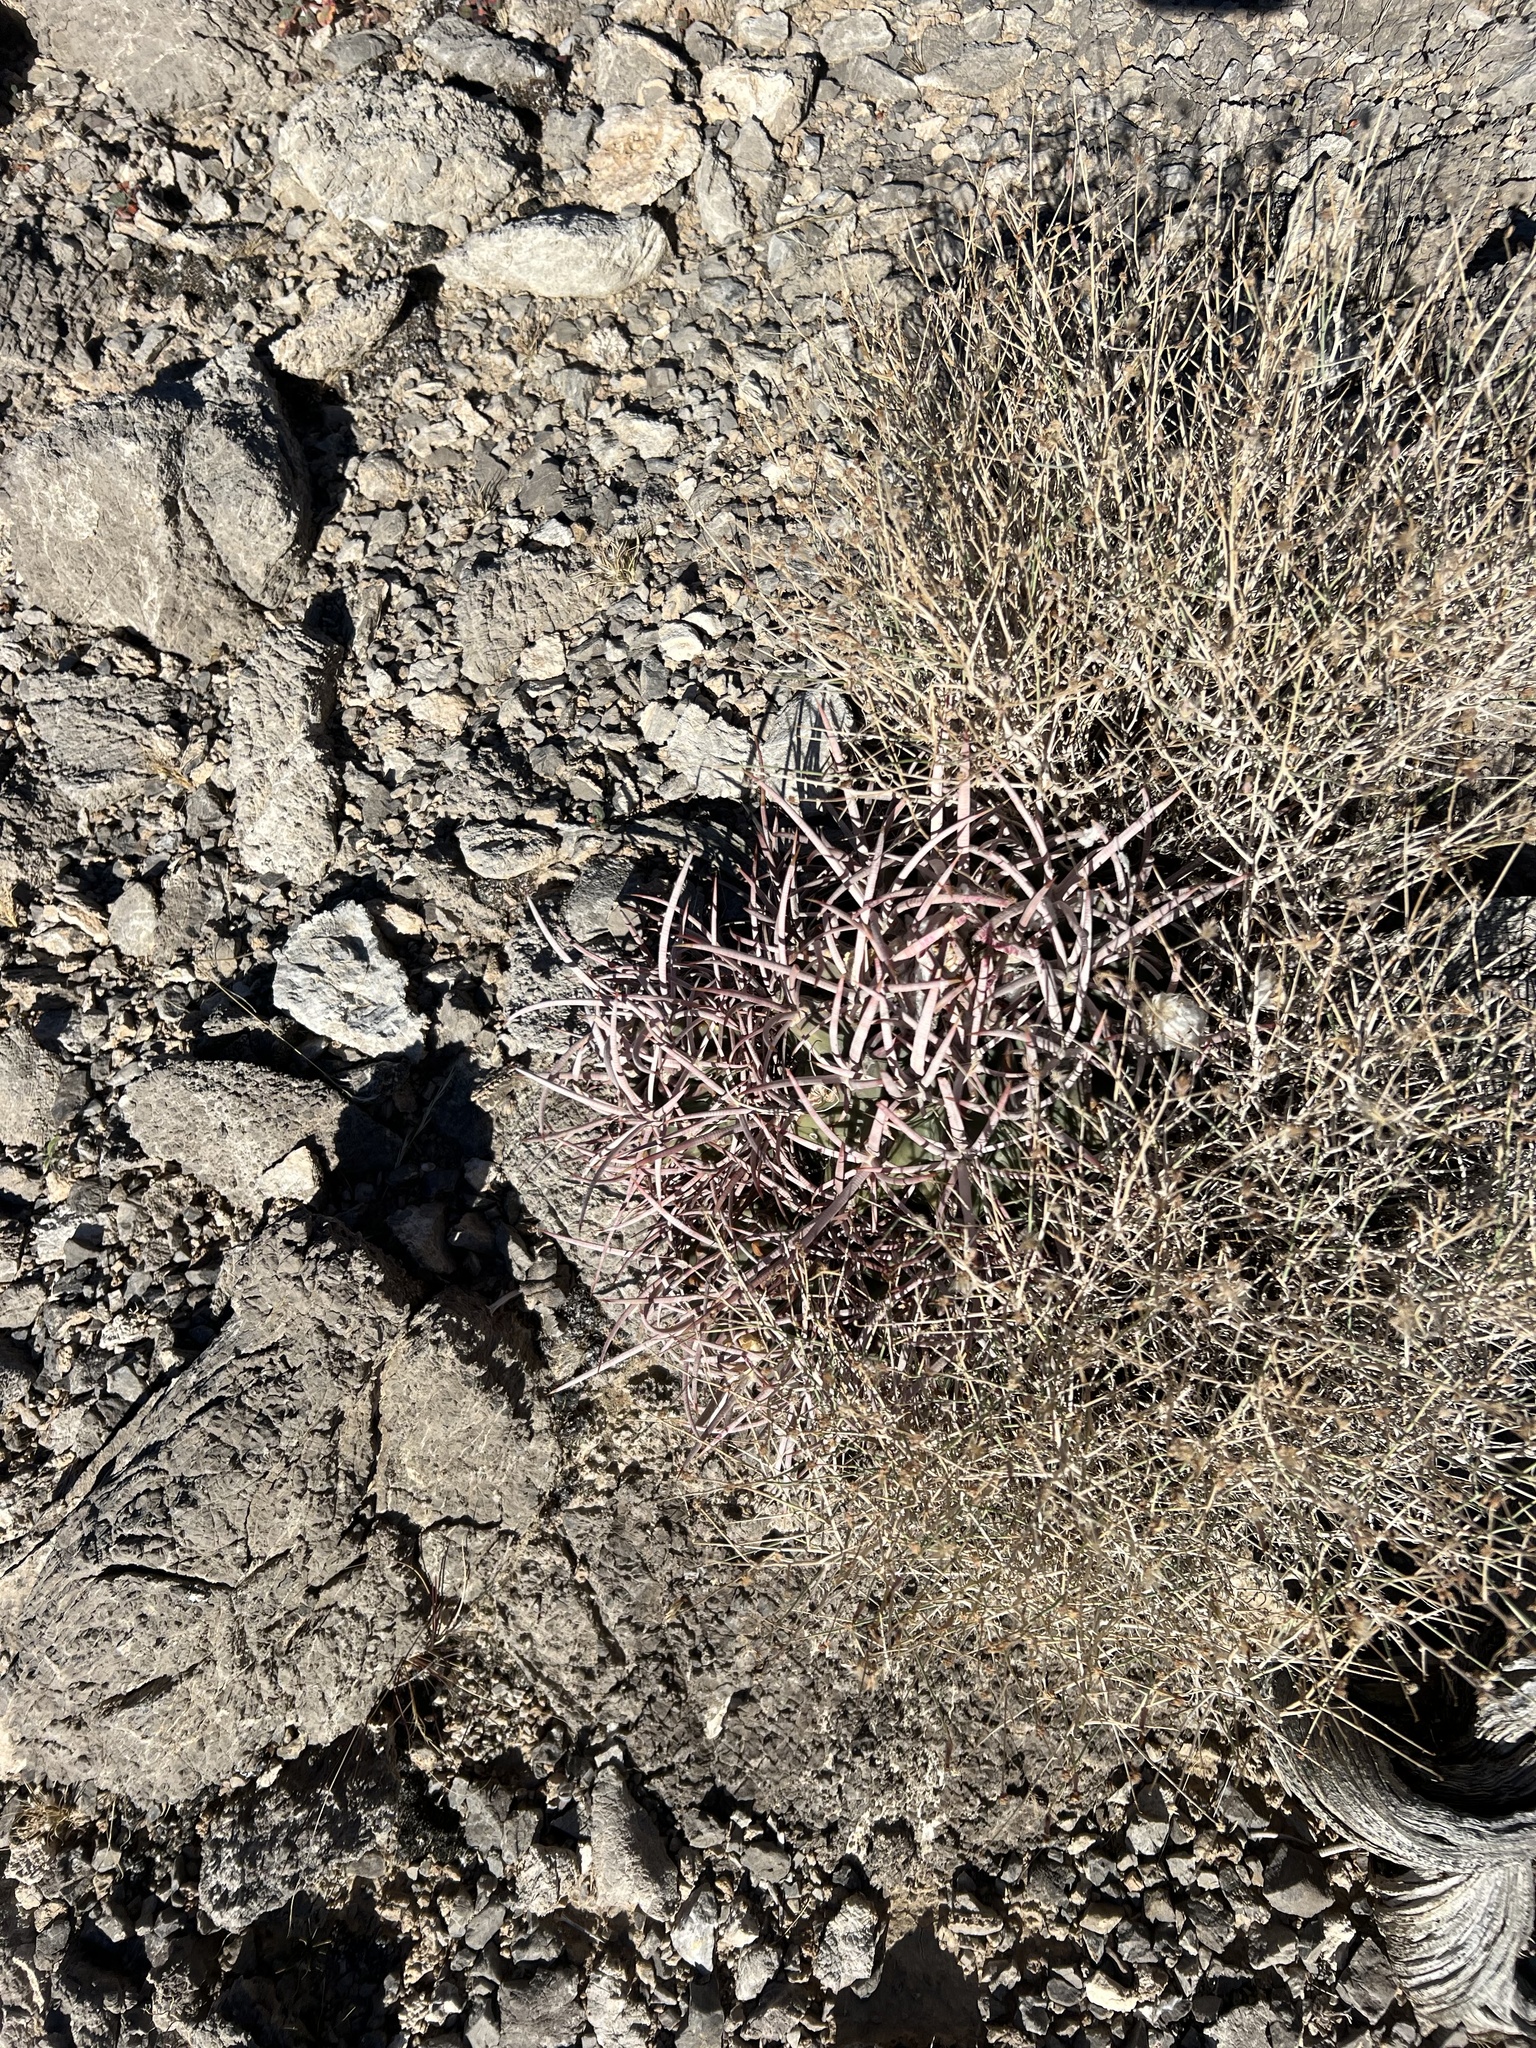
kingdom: Plantae
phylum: Tracheophyta
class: Magnoliopsida
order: Caryophyllales
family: Cactaceae
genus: Echinocactus
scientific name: Echinocactus polycephalus
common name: Cottontop cactus
